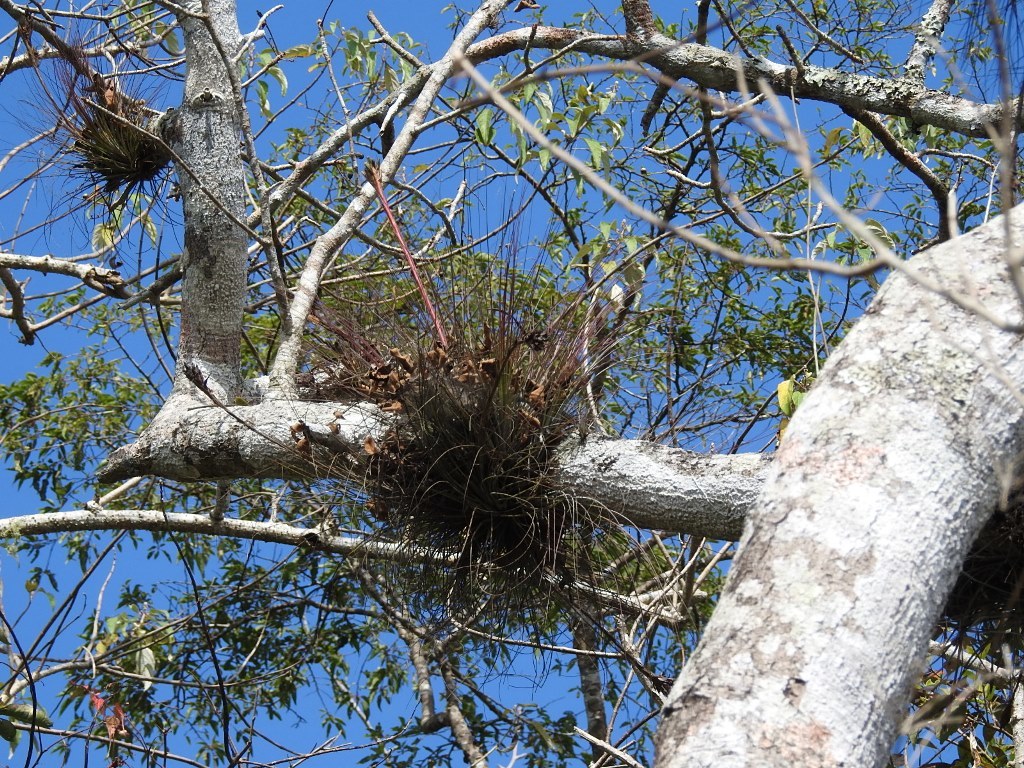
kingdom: Plantae
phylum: Tracheophyta
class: Liliopsida
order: Poales
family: Bromeliaceae
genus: Tillandsia
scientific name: Tillandsia juncea
